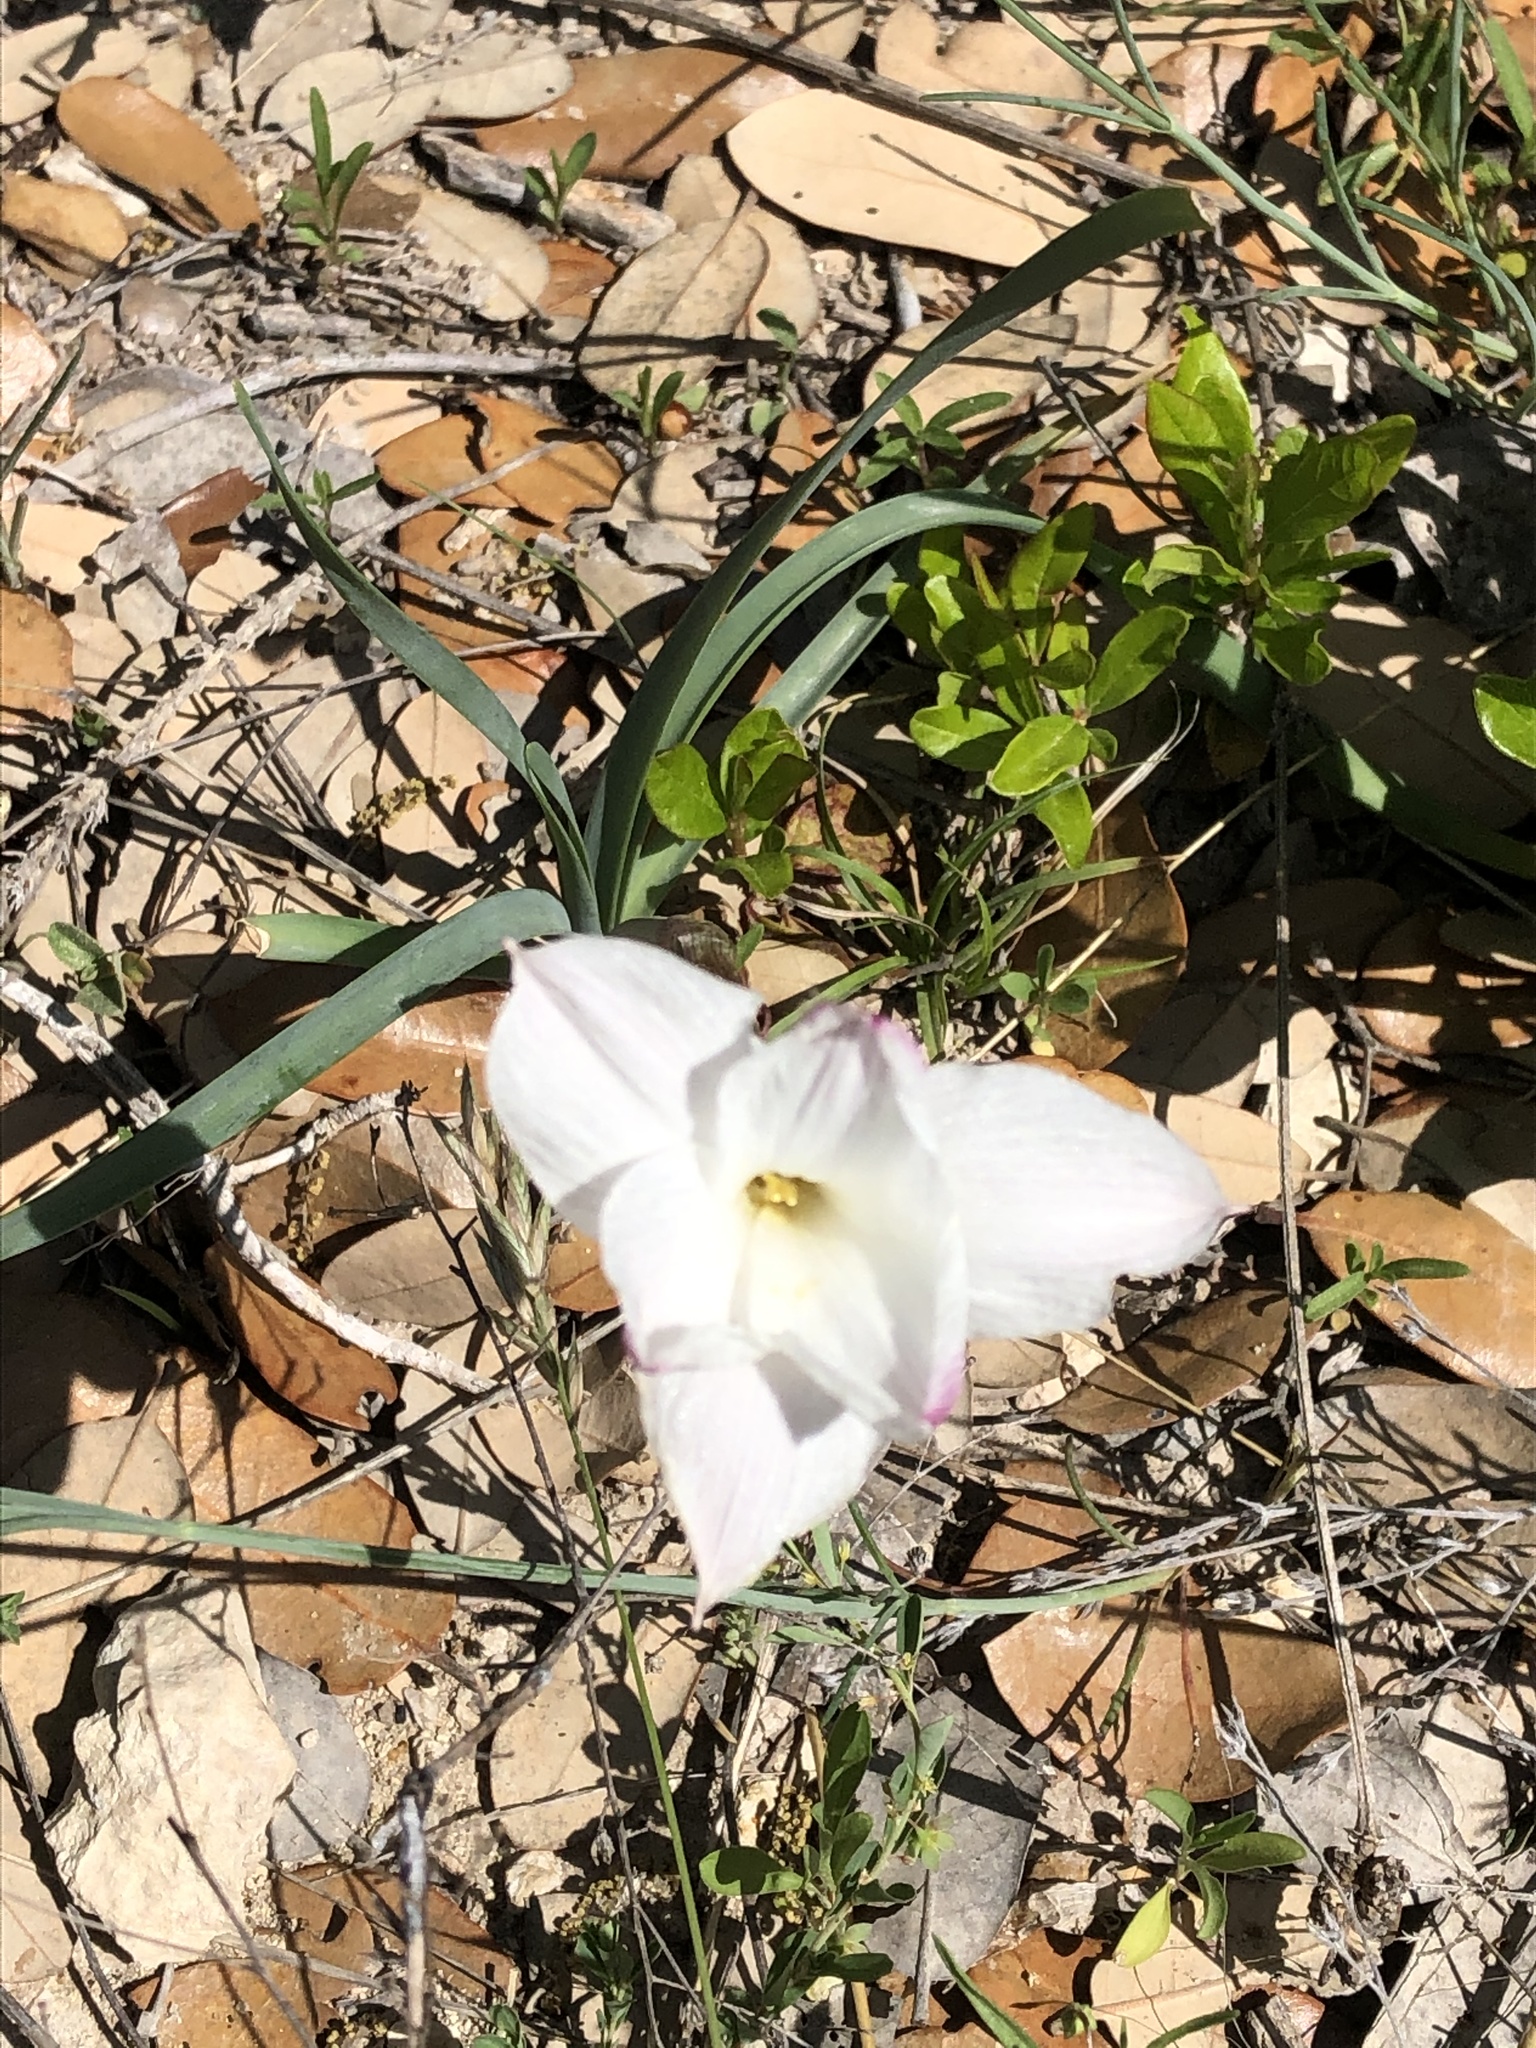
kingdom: Plantae
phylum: Tracheophyta
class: Liliopsida
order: Asparagales
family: Amaryllidaceae
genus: Zephyranthes
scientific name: Zephyranthes drummondii
